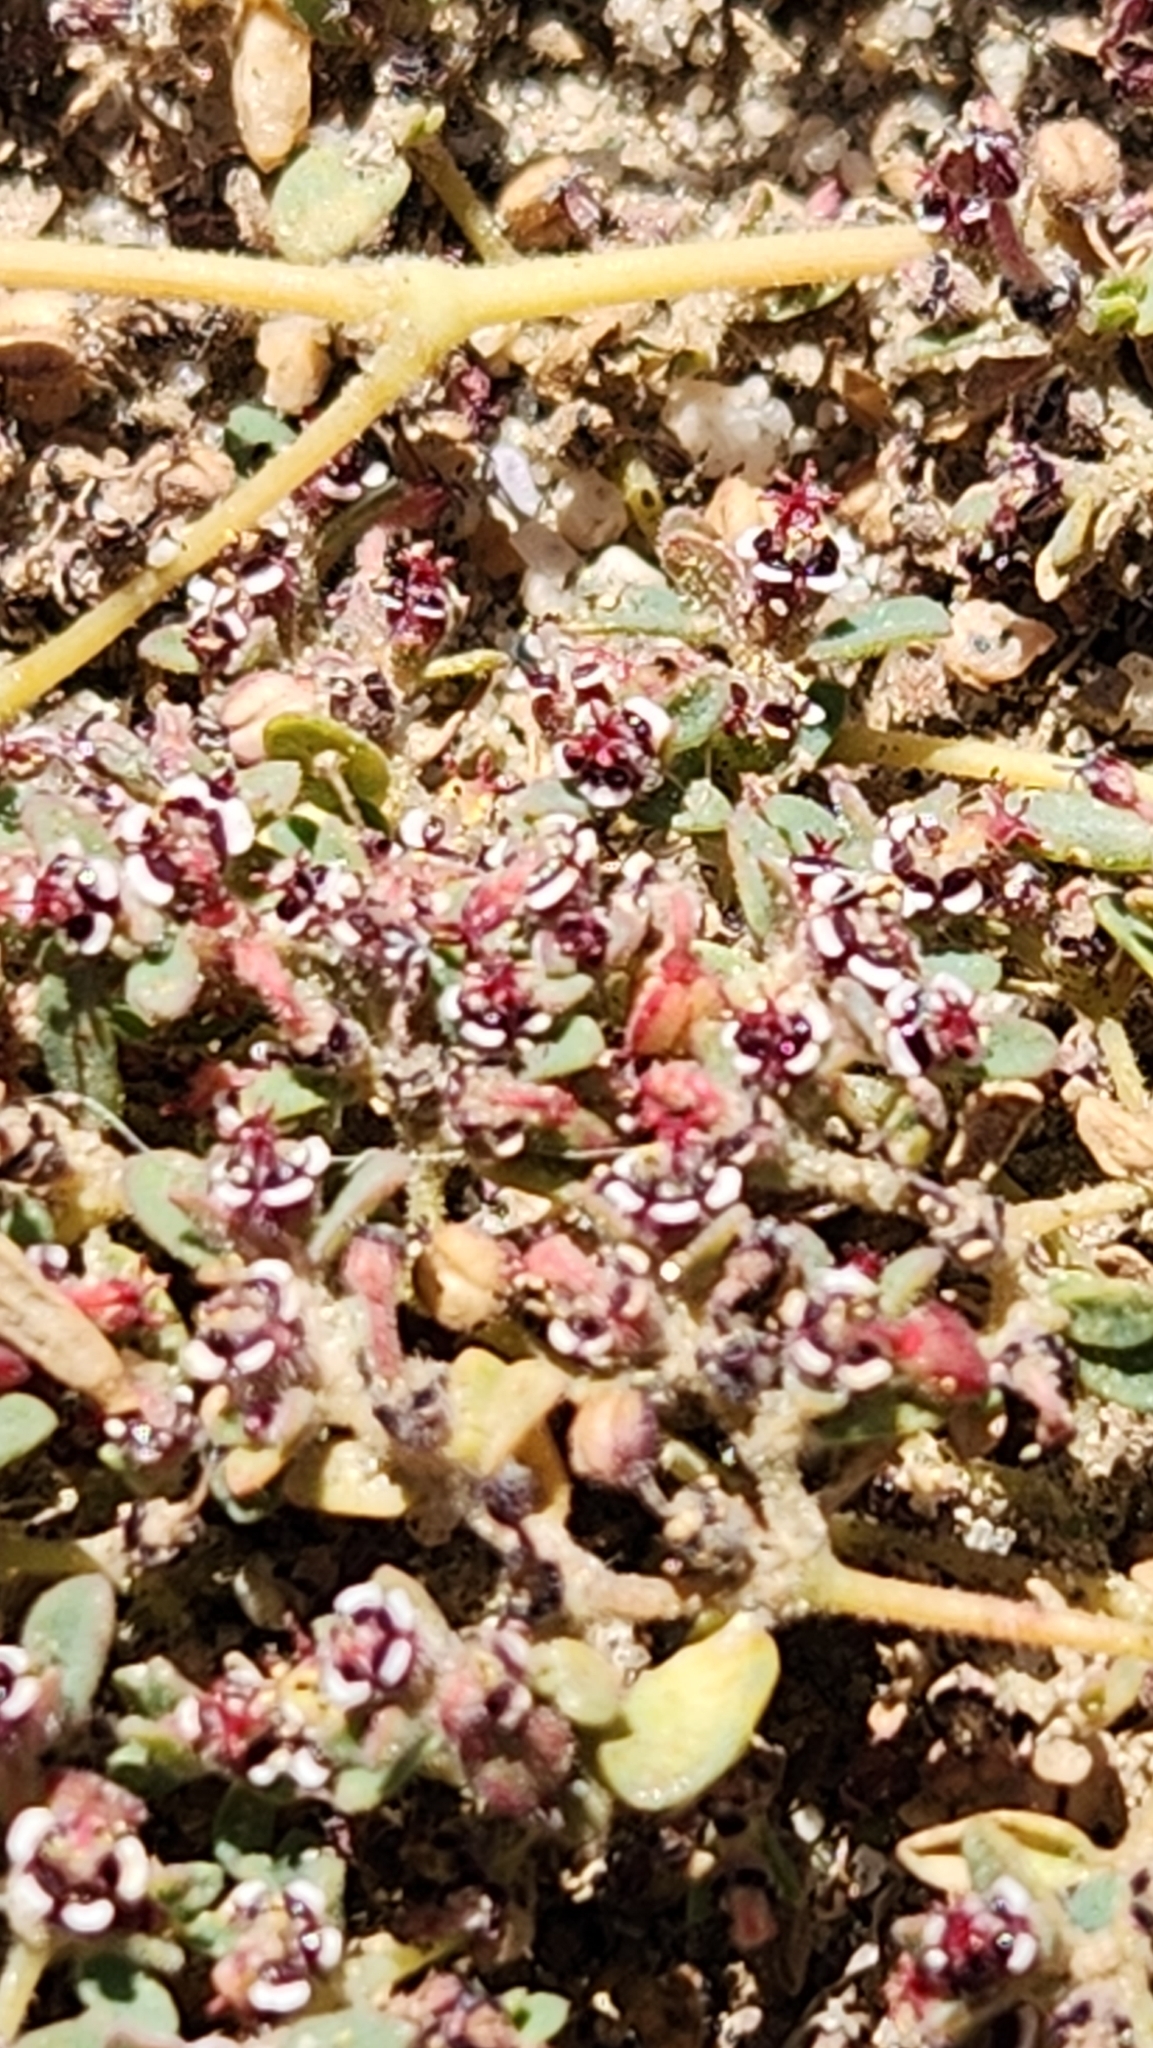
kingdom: Plantae
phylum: Tracheophyta
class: Magnoliopsida
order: Malpighiales
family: Euphorbiaceae
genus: Euphorbia
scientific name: Euphorbia polycarpa
